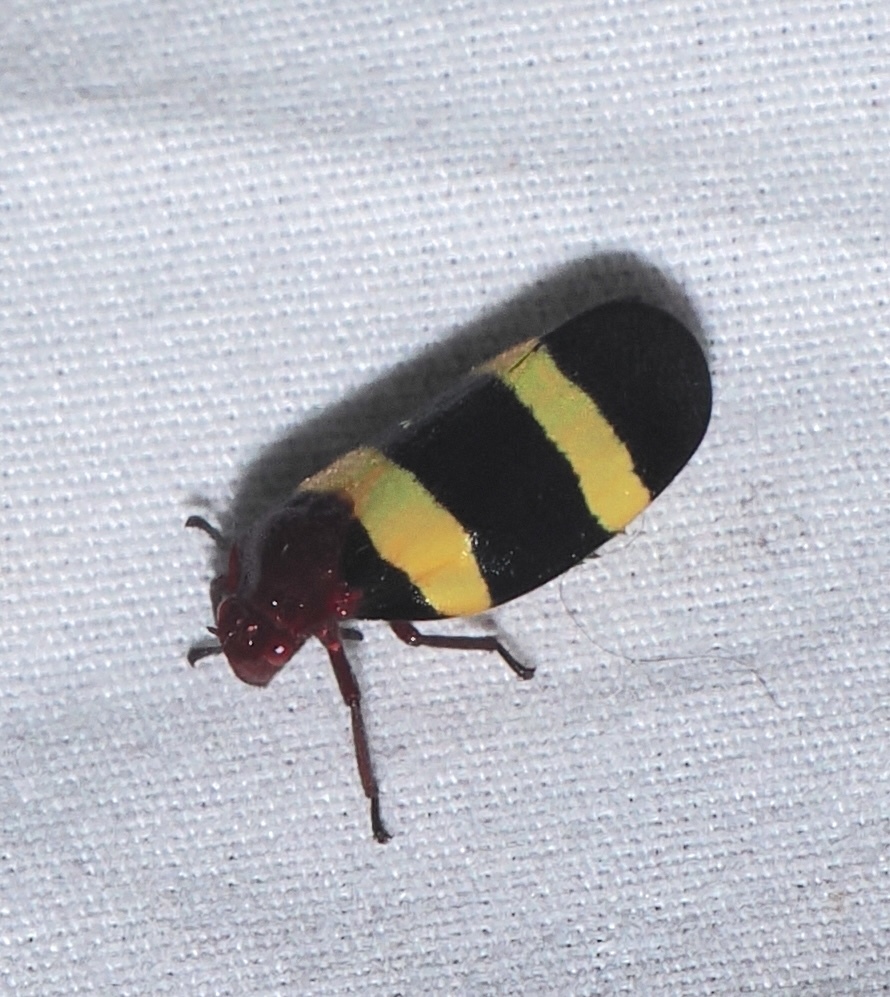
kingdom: Animalia
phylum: Arthropoda
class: Insecta
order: Hemiptera
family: Cercopidae
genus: Sphenorhina
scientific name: Sphenorhina rubra
